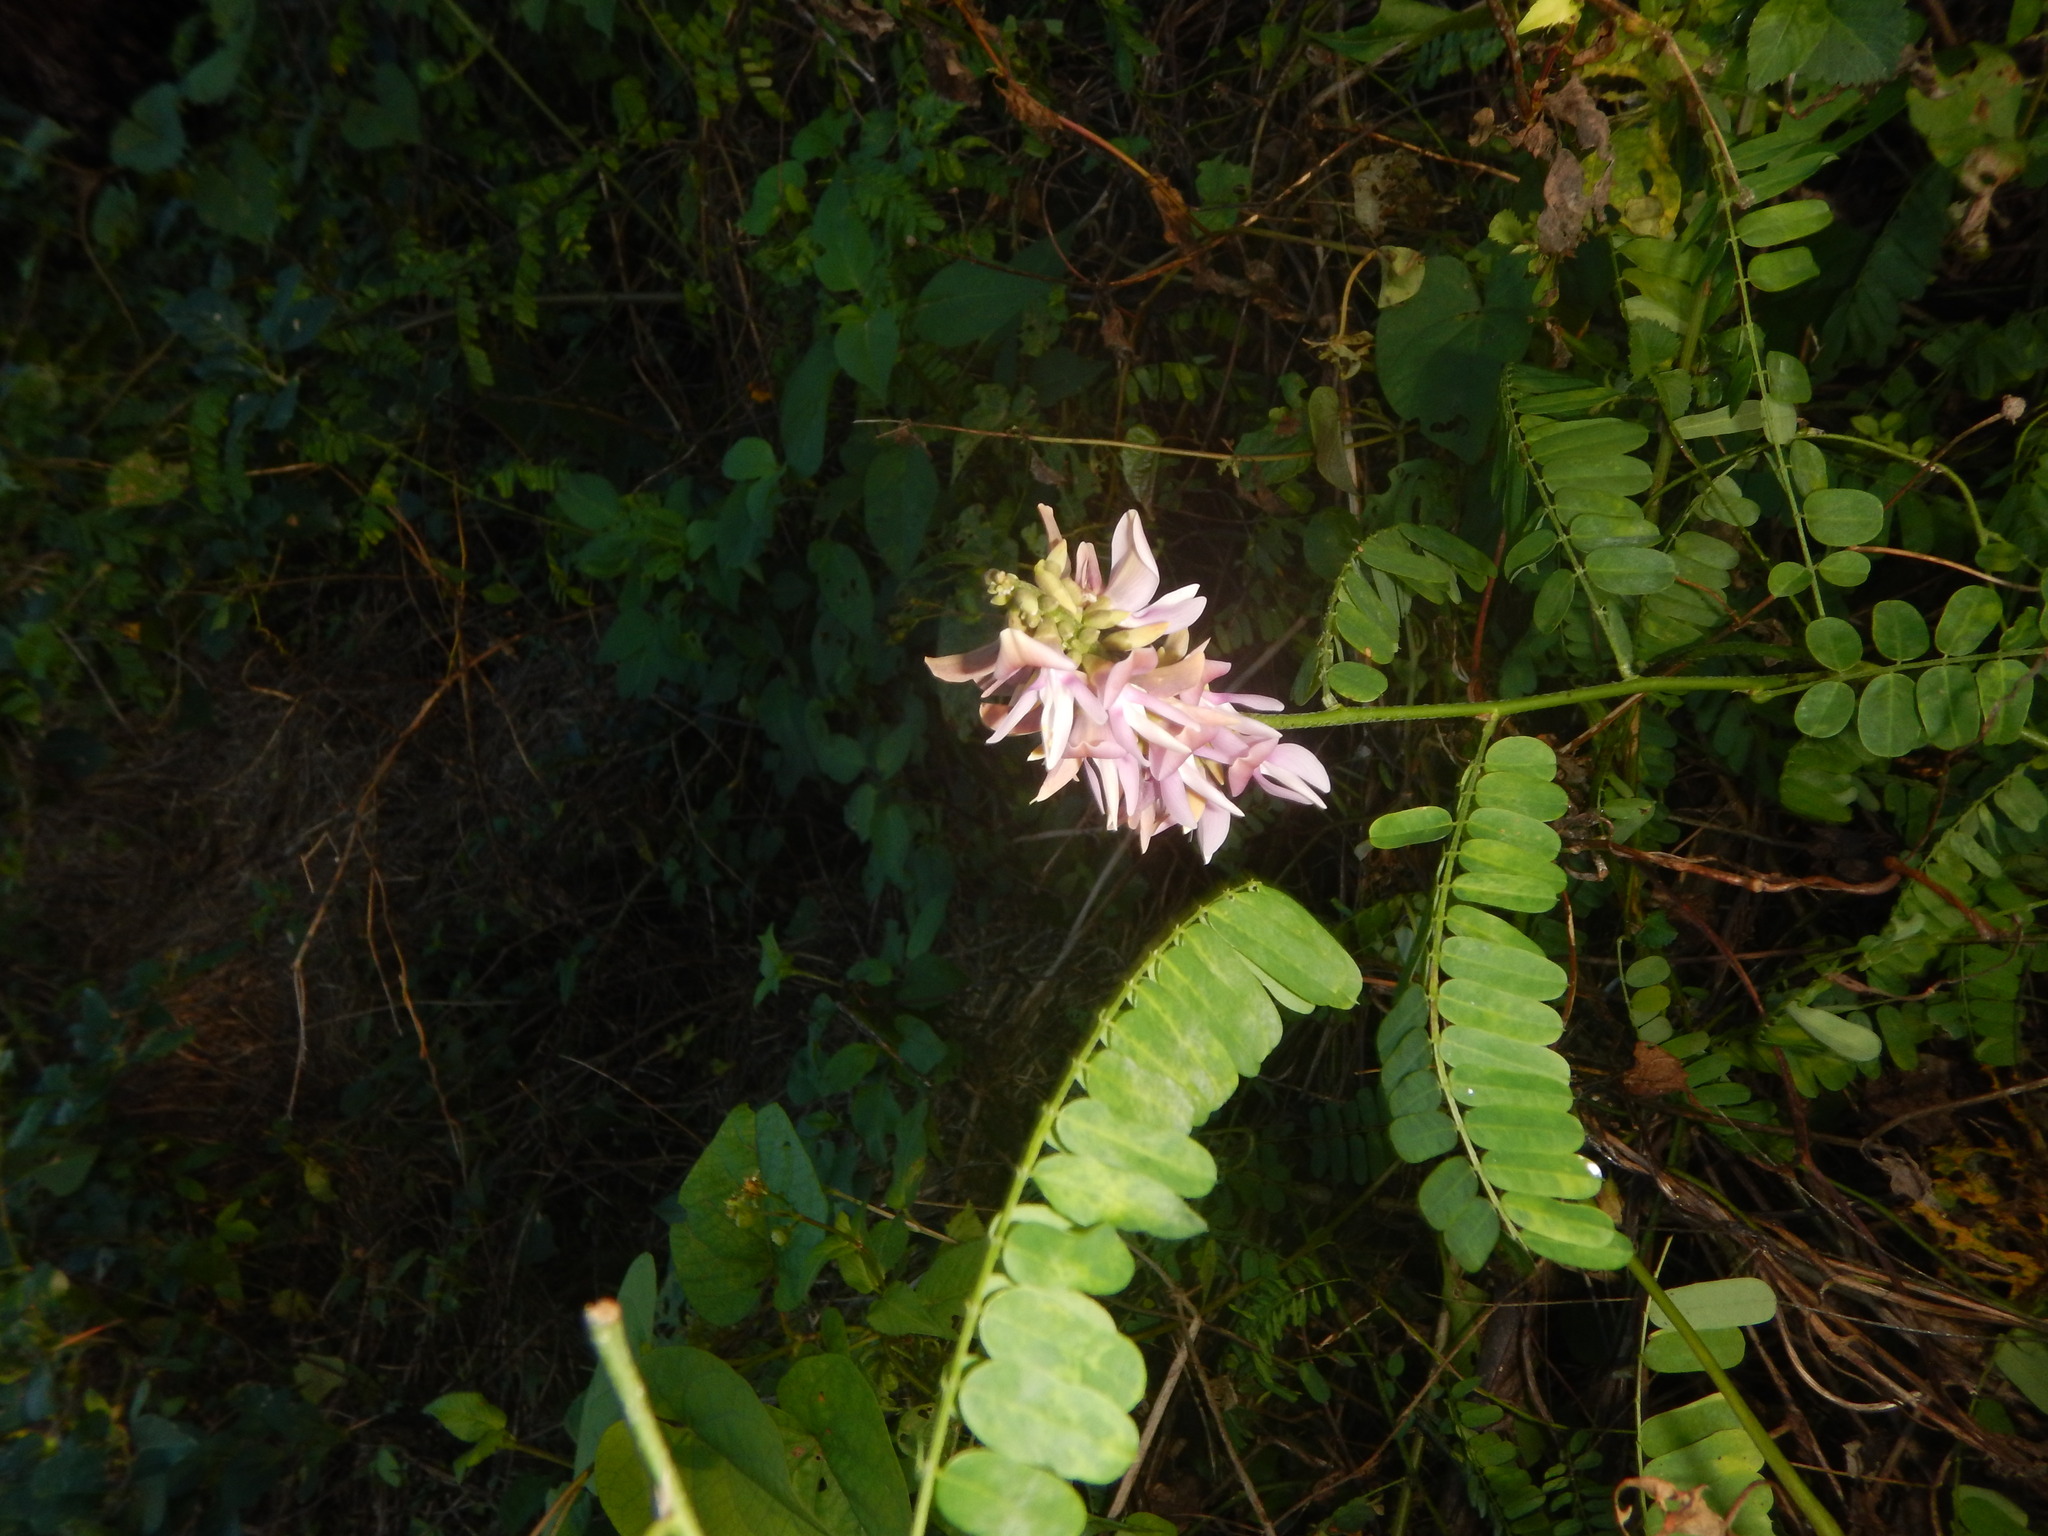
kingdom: Plantae
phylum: Tracheophyta
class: Magnoliopsida
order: Fabales
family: Fabaceae
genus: Abrus
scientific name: Abrus precatorius
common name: Rosarypea
